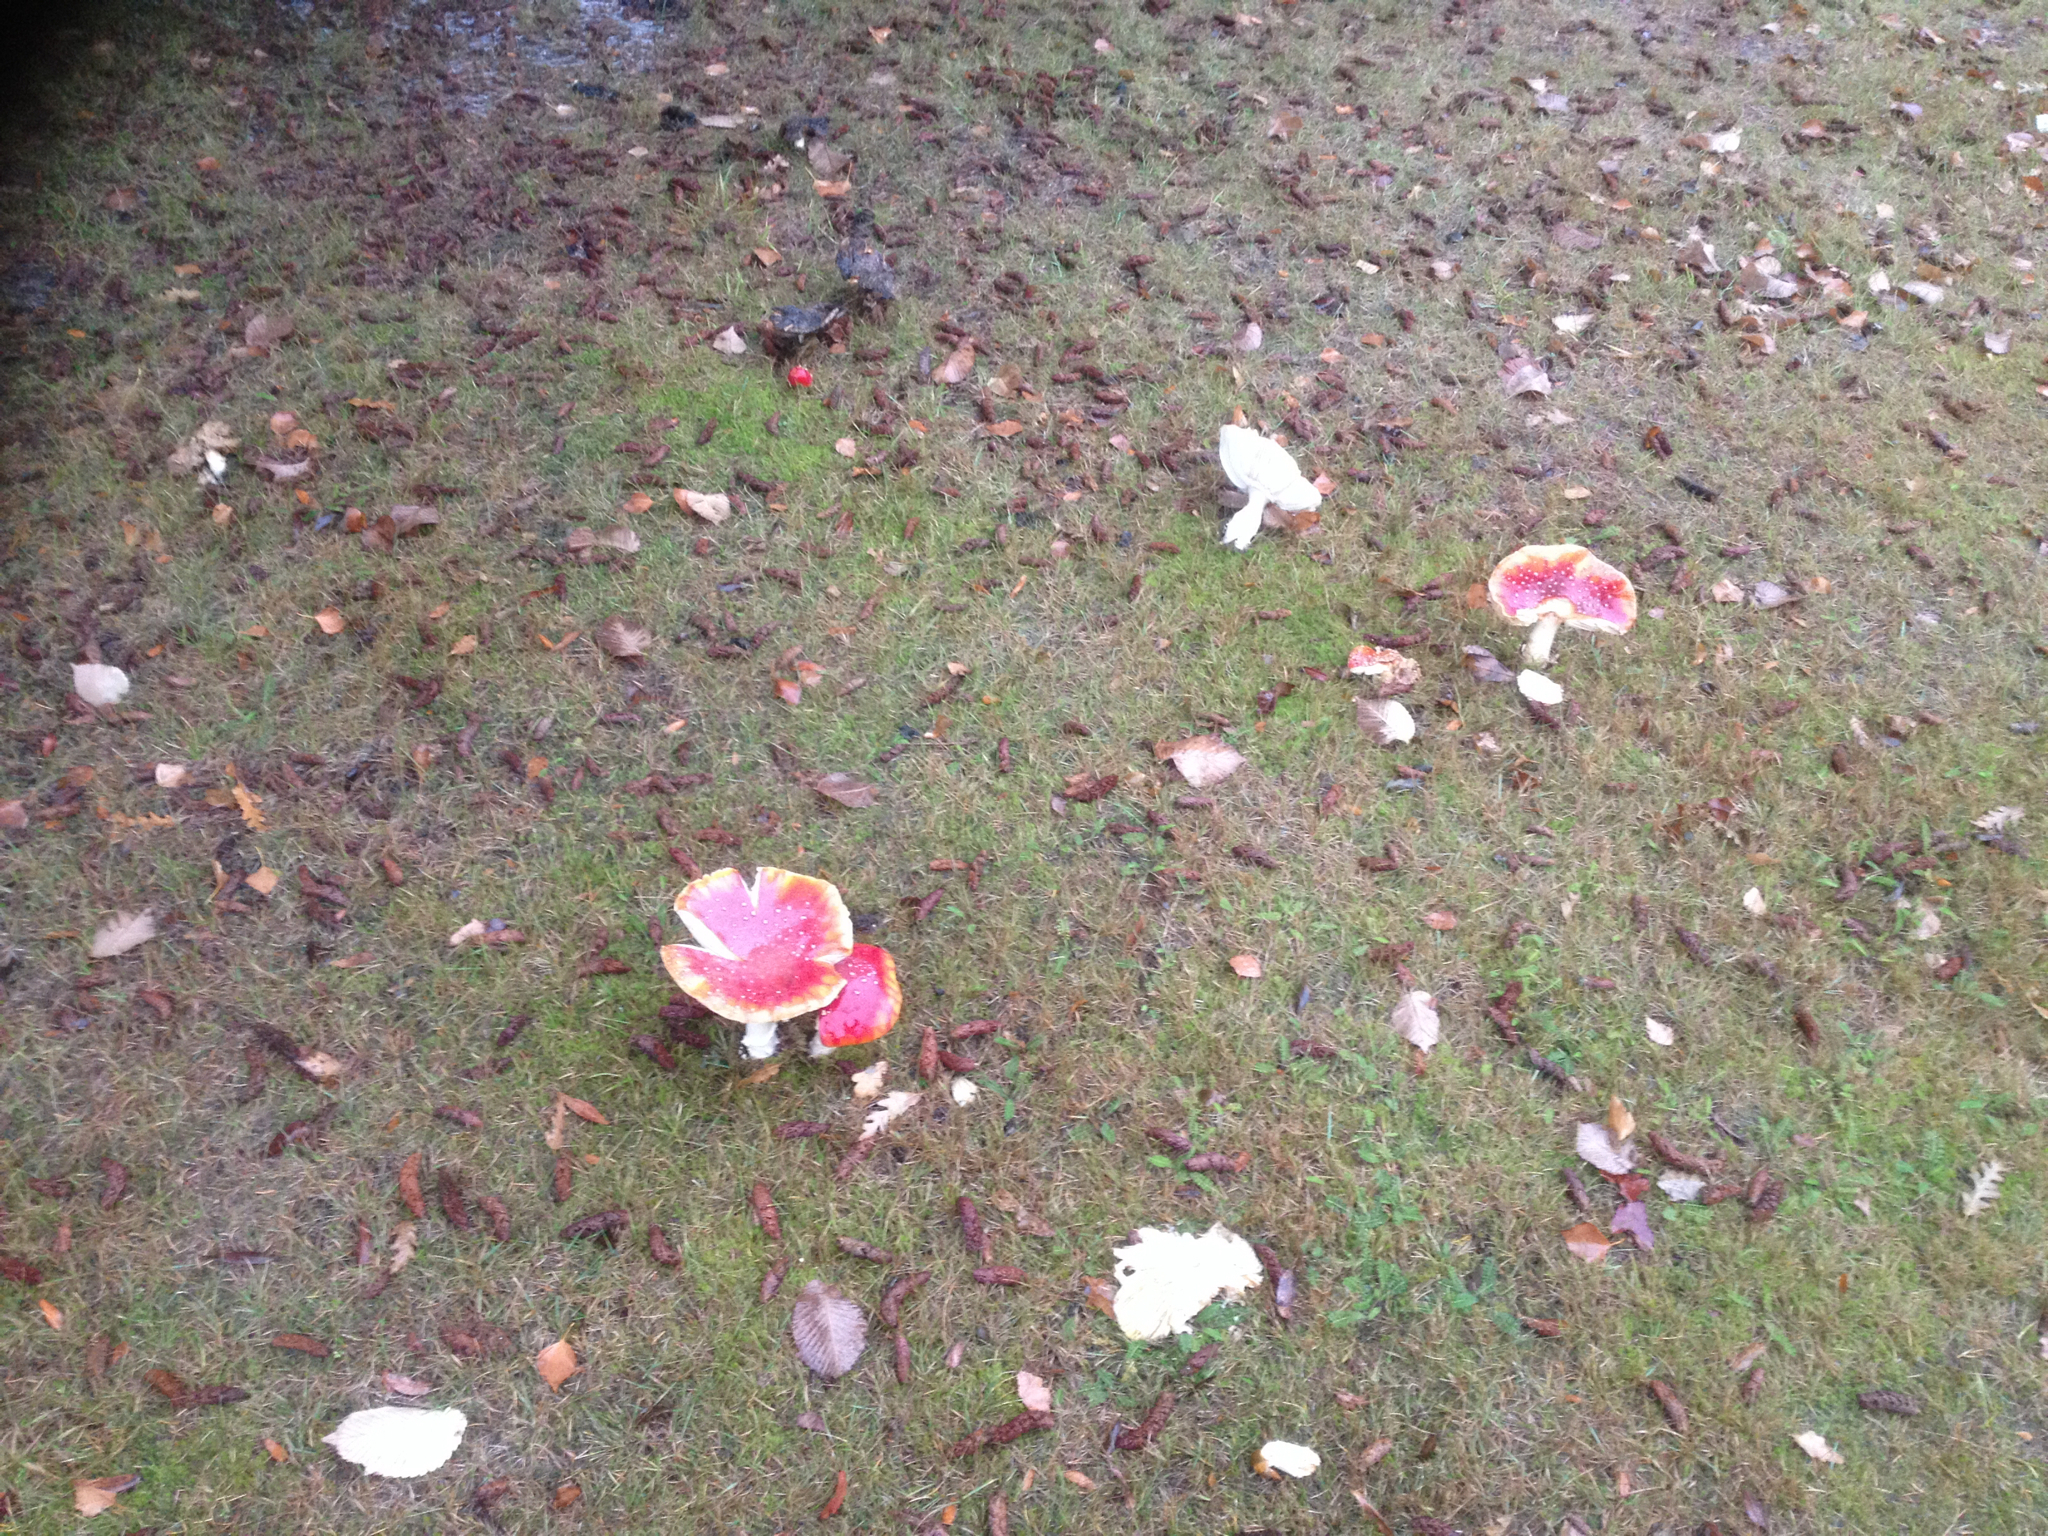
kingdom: Fungi
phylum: Basidiomycota
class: Agaricomycetes
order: Agaricales
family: Amanitaceae
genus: Amanita
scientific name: Amanita muscaria
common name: Fly agaric
